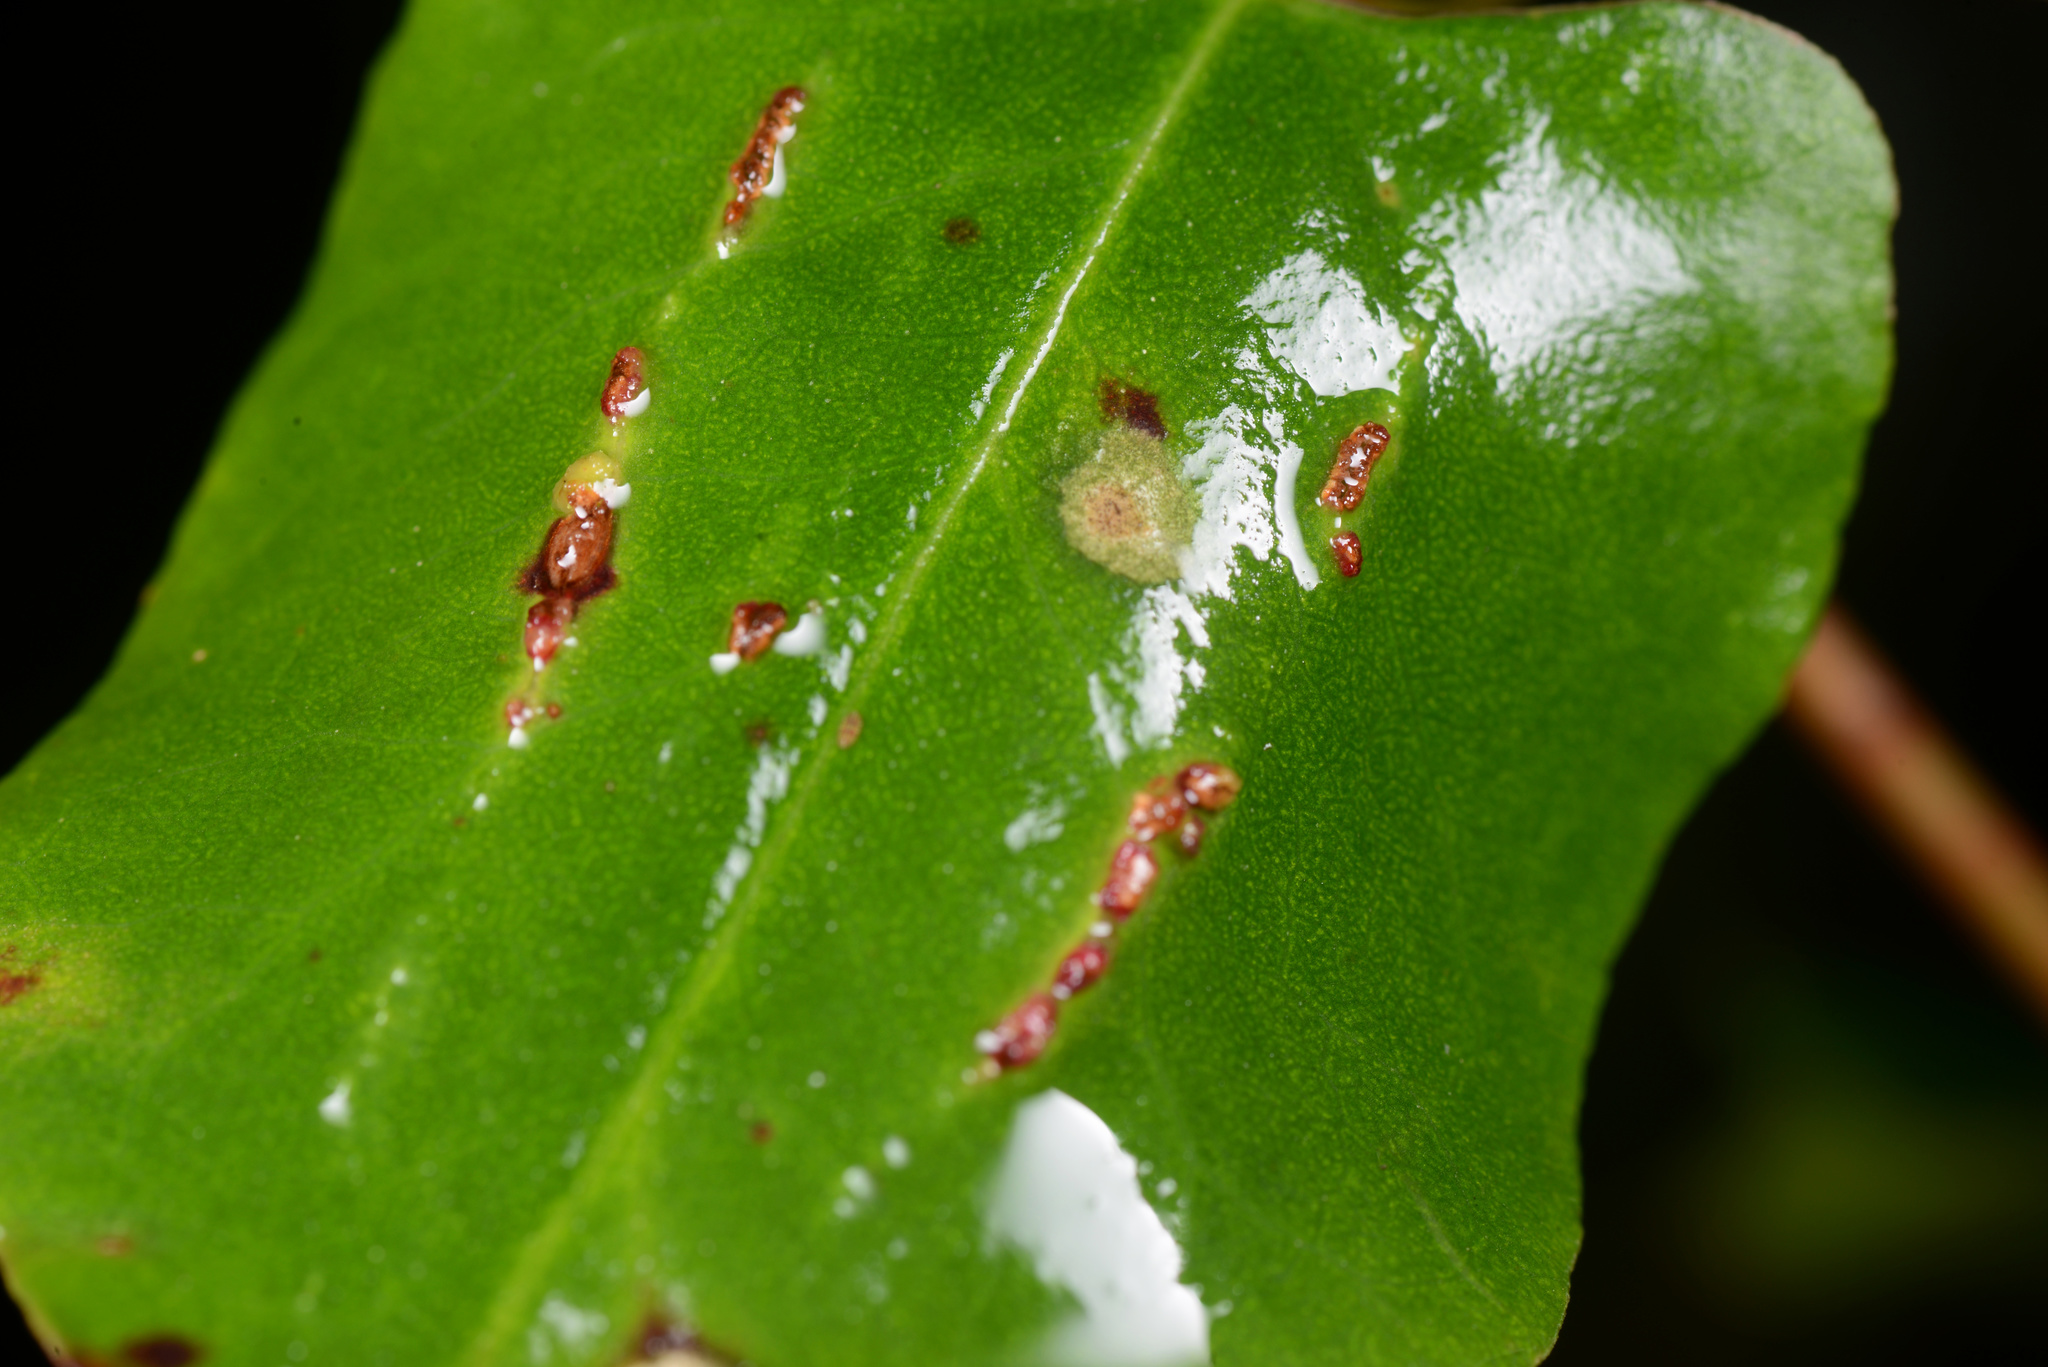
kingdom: Animalia
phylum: Arthropoda
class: Arachnida
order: Trombidiformes
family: Eriophyidae
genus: Aceria
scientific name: Aceria lamii
